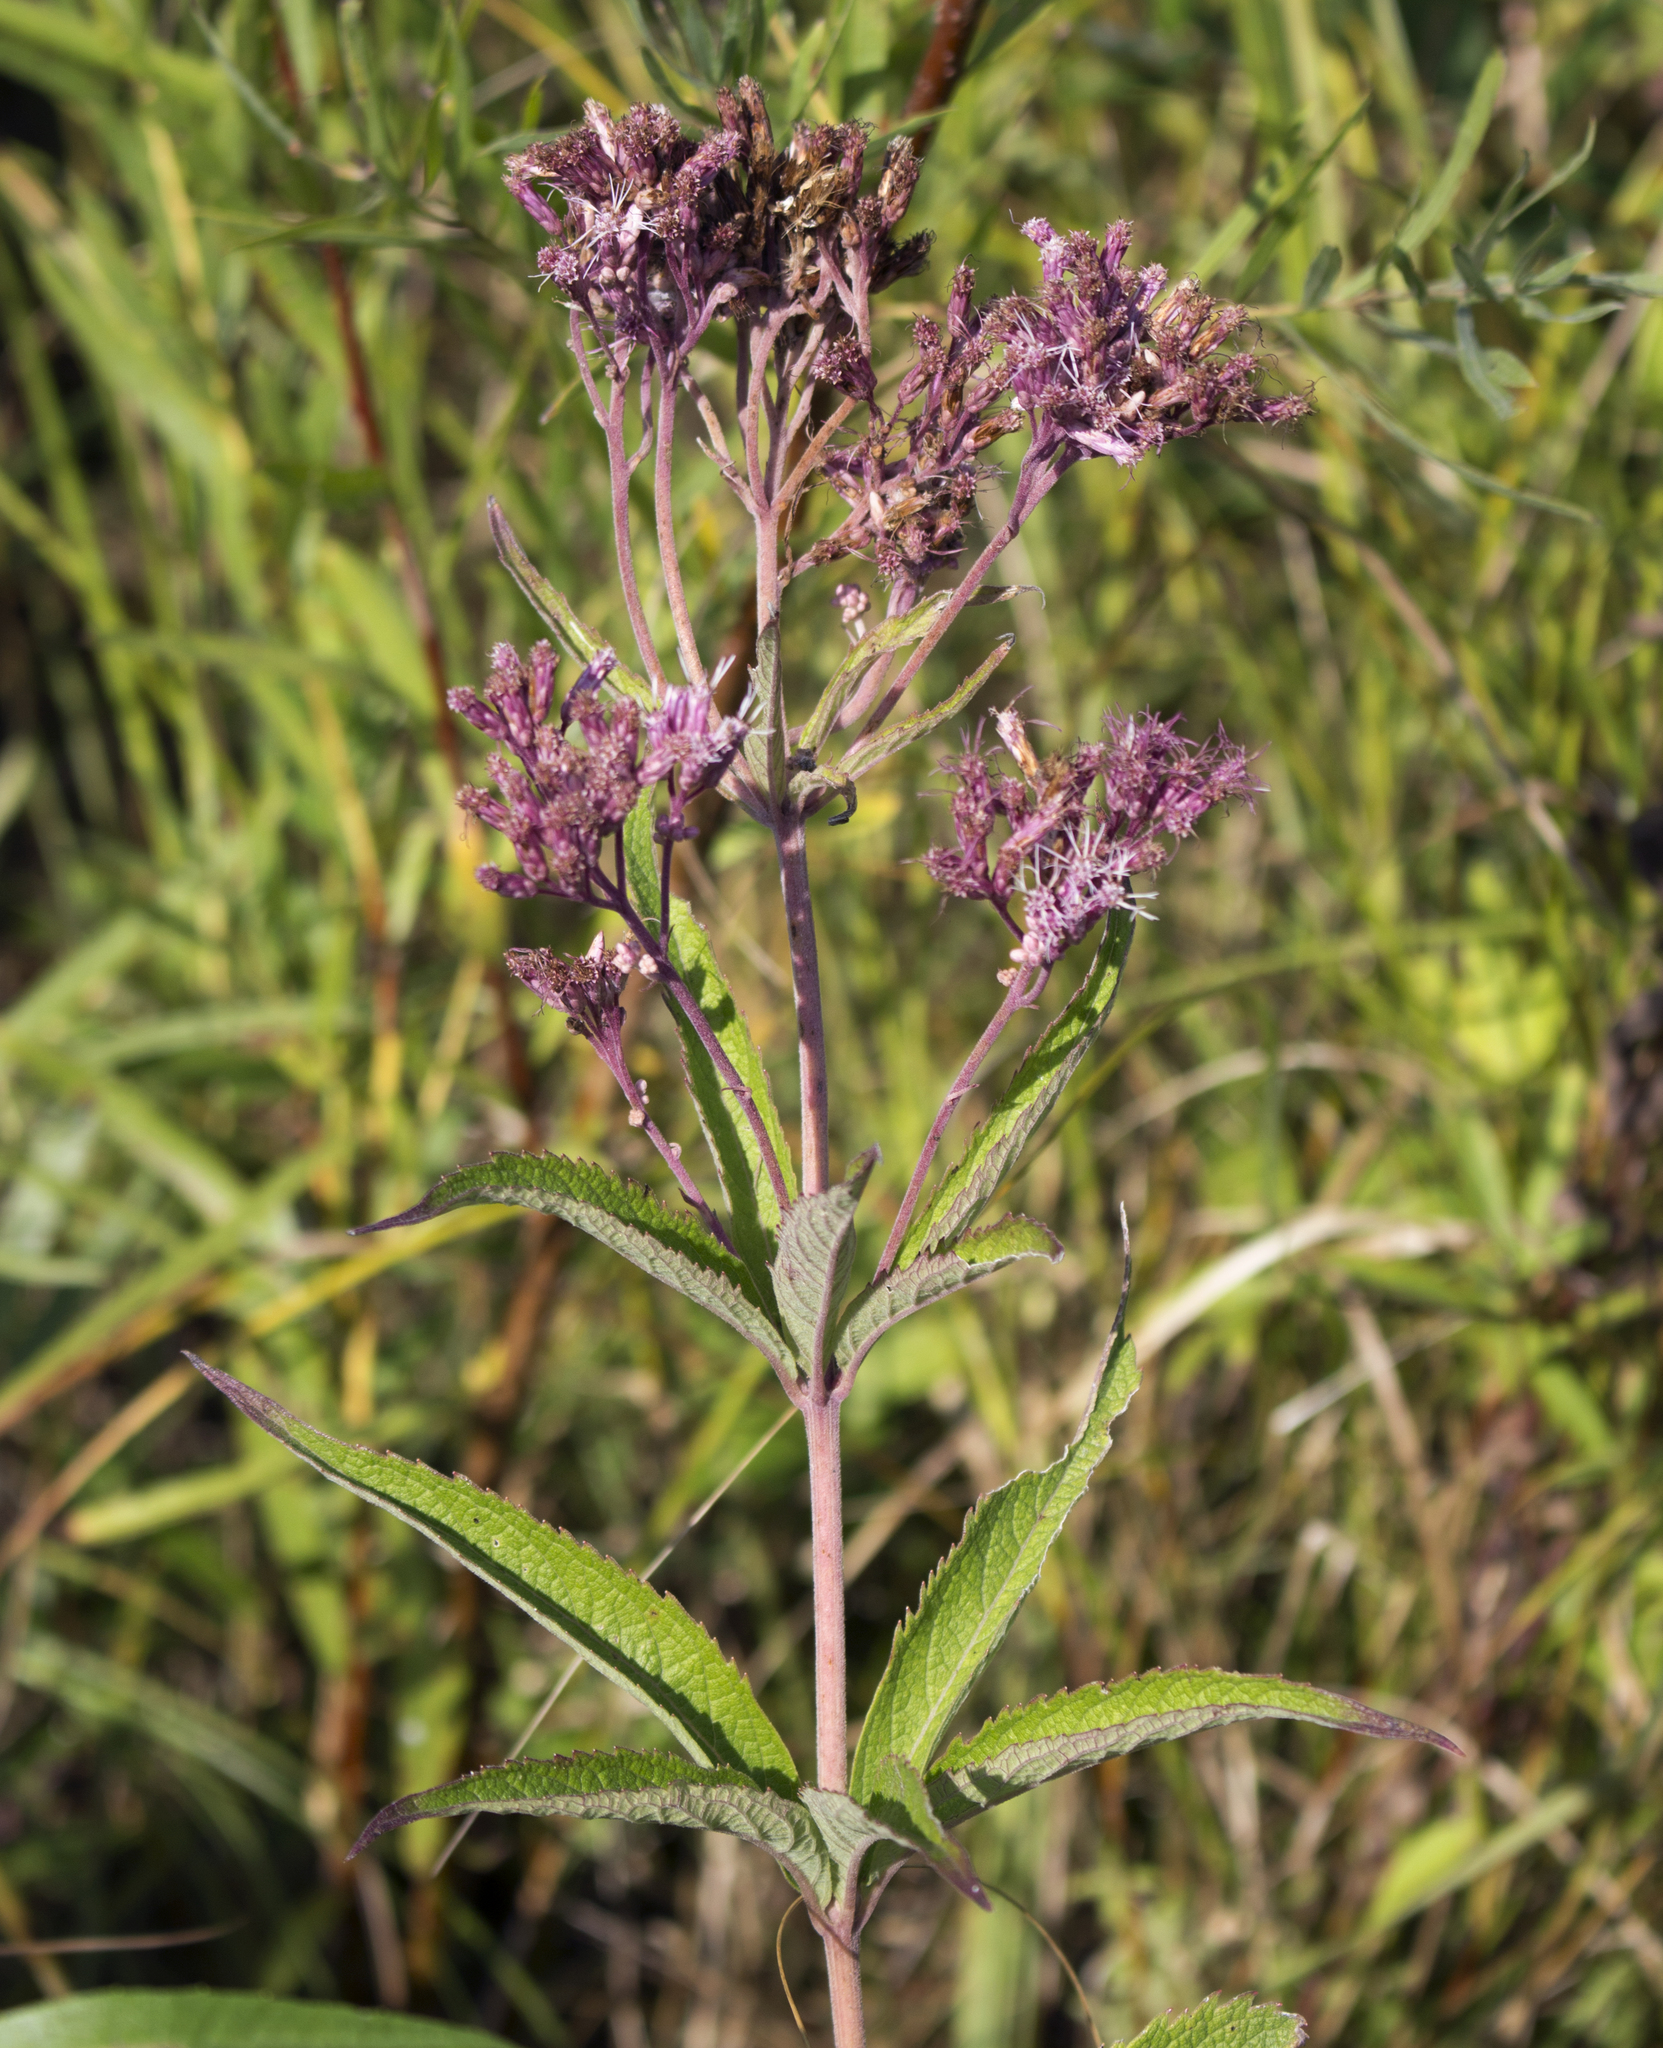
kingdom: Plantae
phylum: Tracheophyta
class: Magnoliopsida
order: Asterales
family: Asteraceae
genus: Eutrochium
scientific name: Eutrochium maculatum
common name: Spotted joe pye weed
